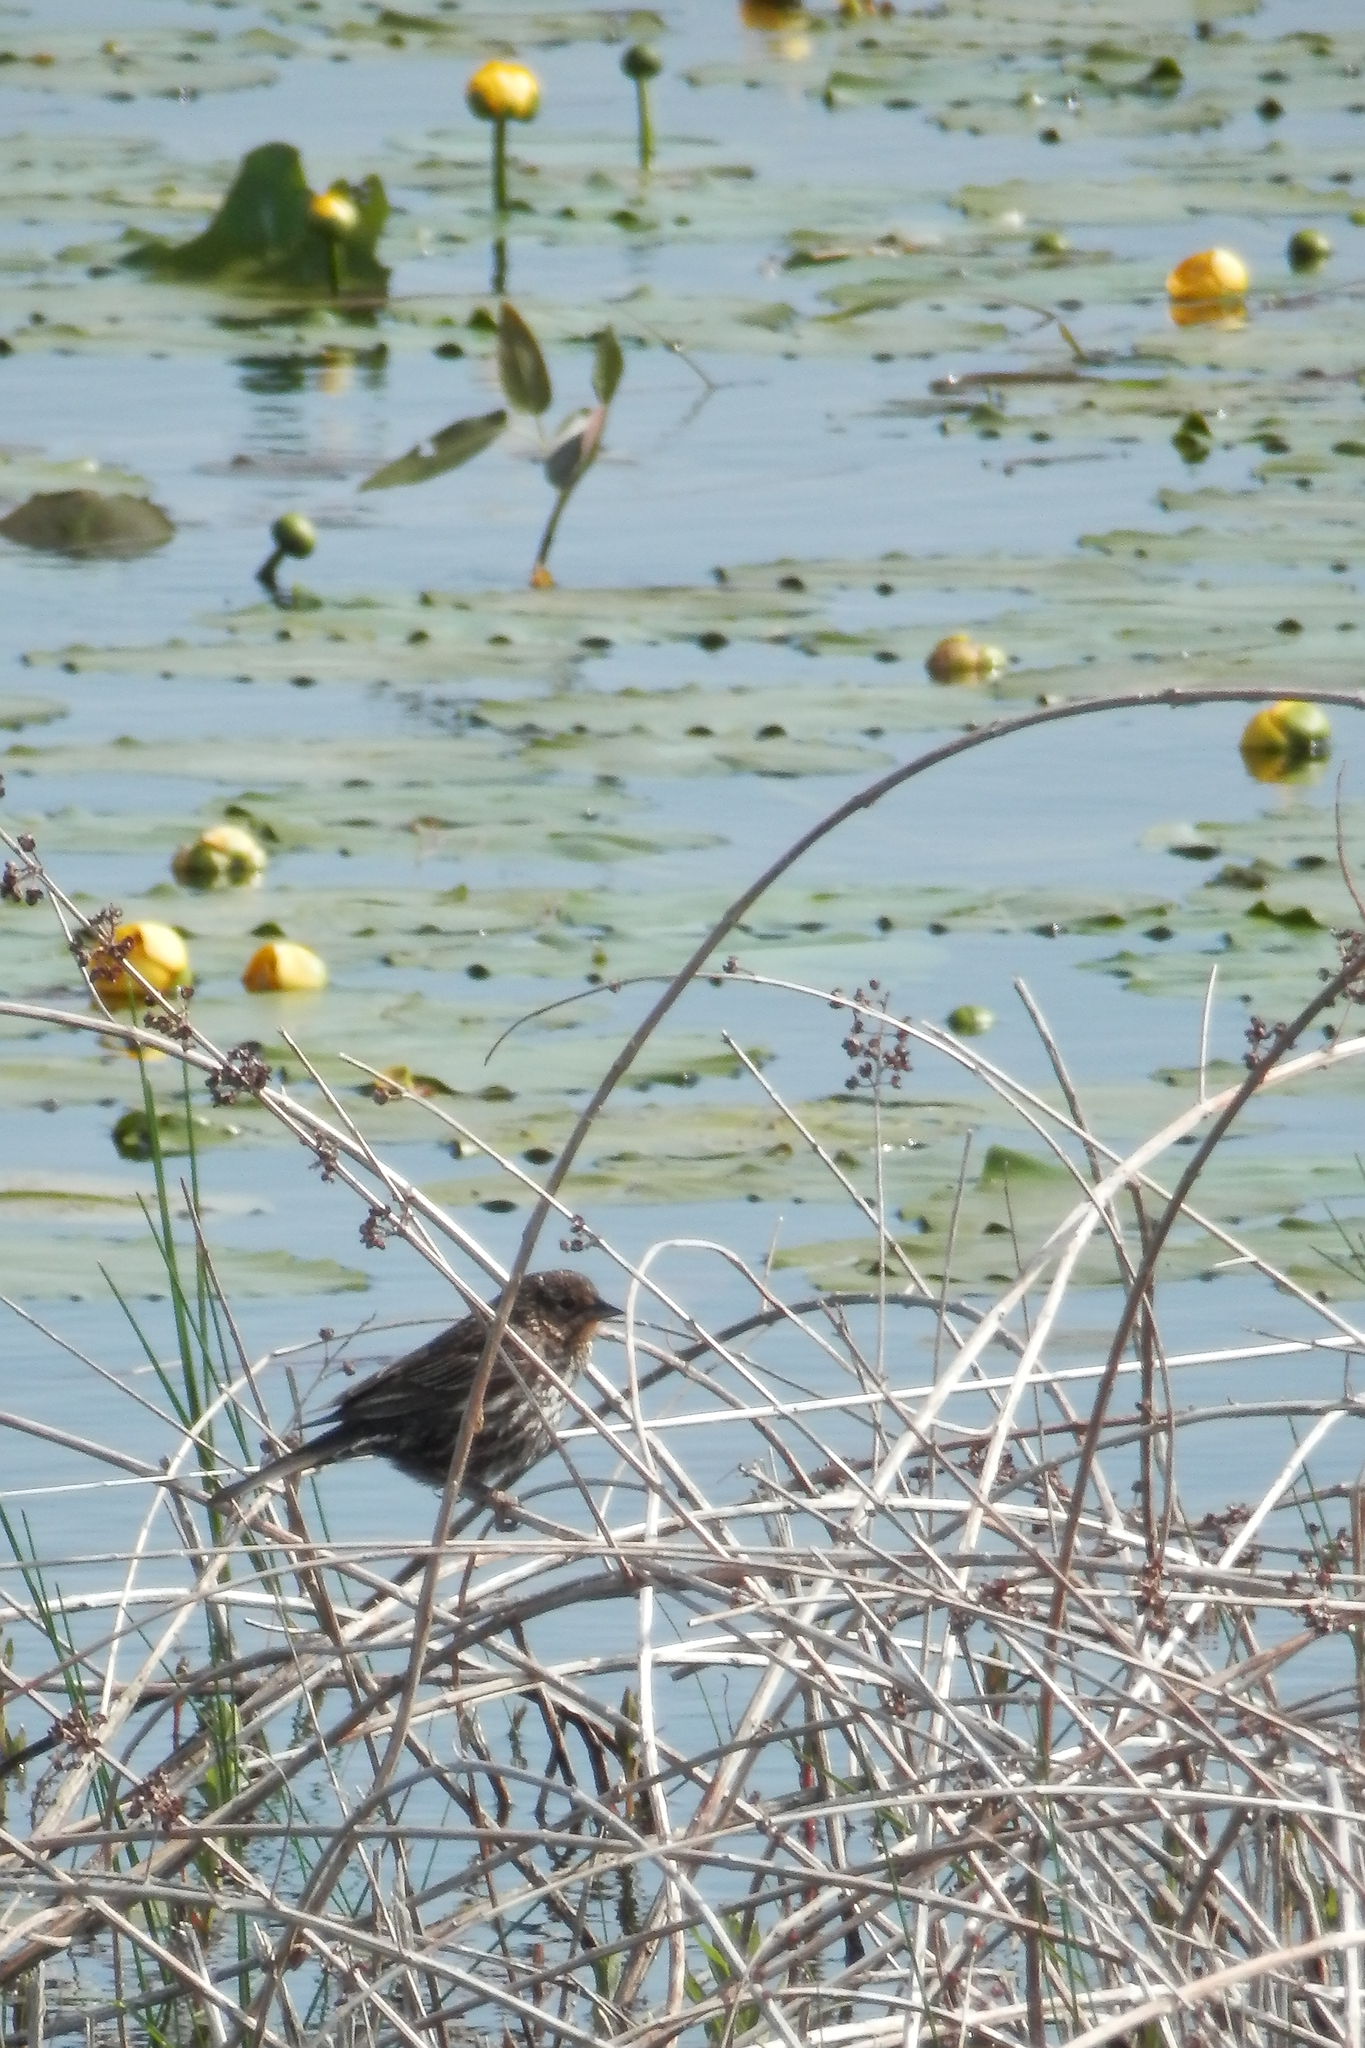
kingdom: Animalia
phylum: Chordata
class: Aves
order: Passeriformes
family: Icteridae
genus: Agelaius
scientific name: Agelaius phoeniceus
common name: Red-winged blackbird
